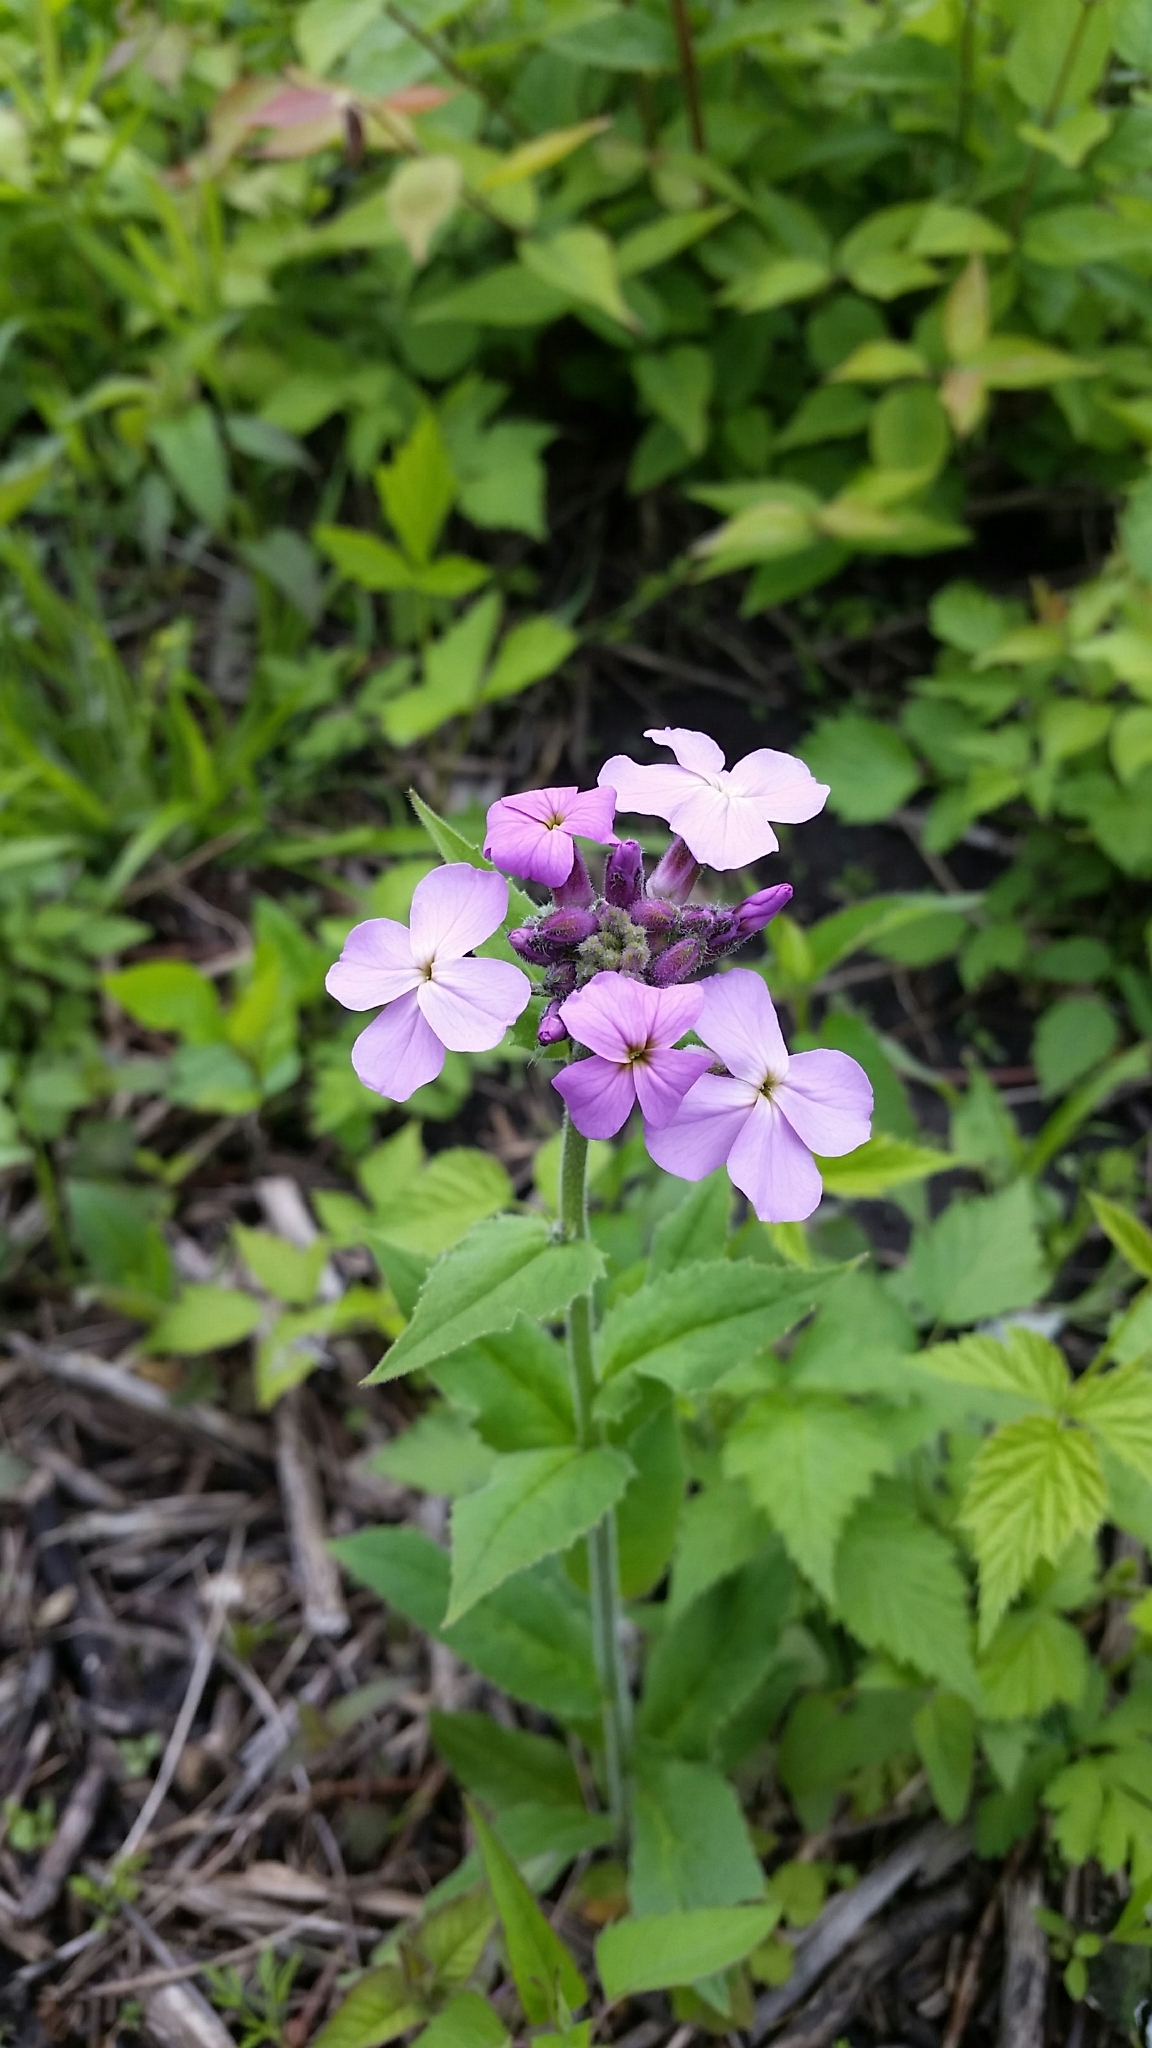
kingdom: Plantae
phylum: Tracheophyta
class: Magnoliopsida
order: Brassicales
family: Brassicaceae
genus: Hesperis
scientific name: Hesperis matronalis
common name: Dame's-violet
